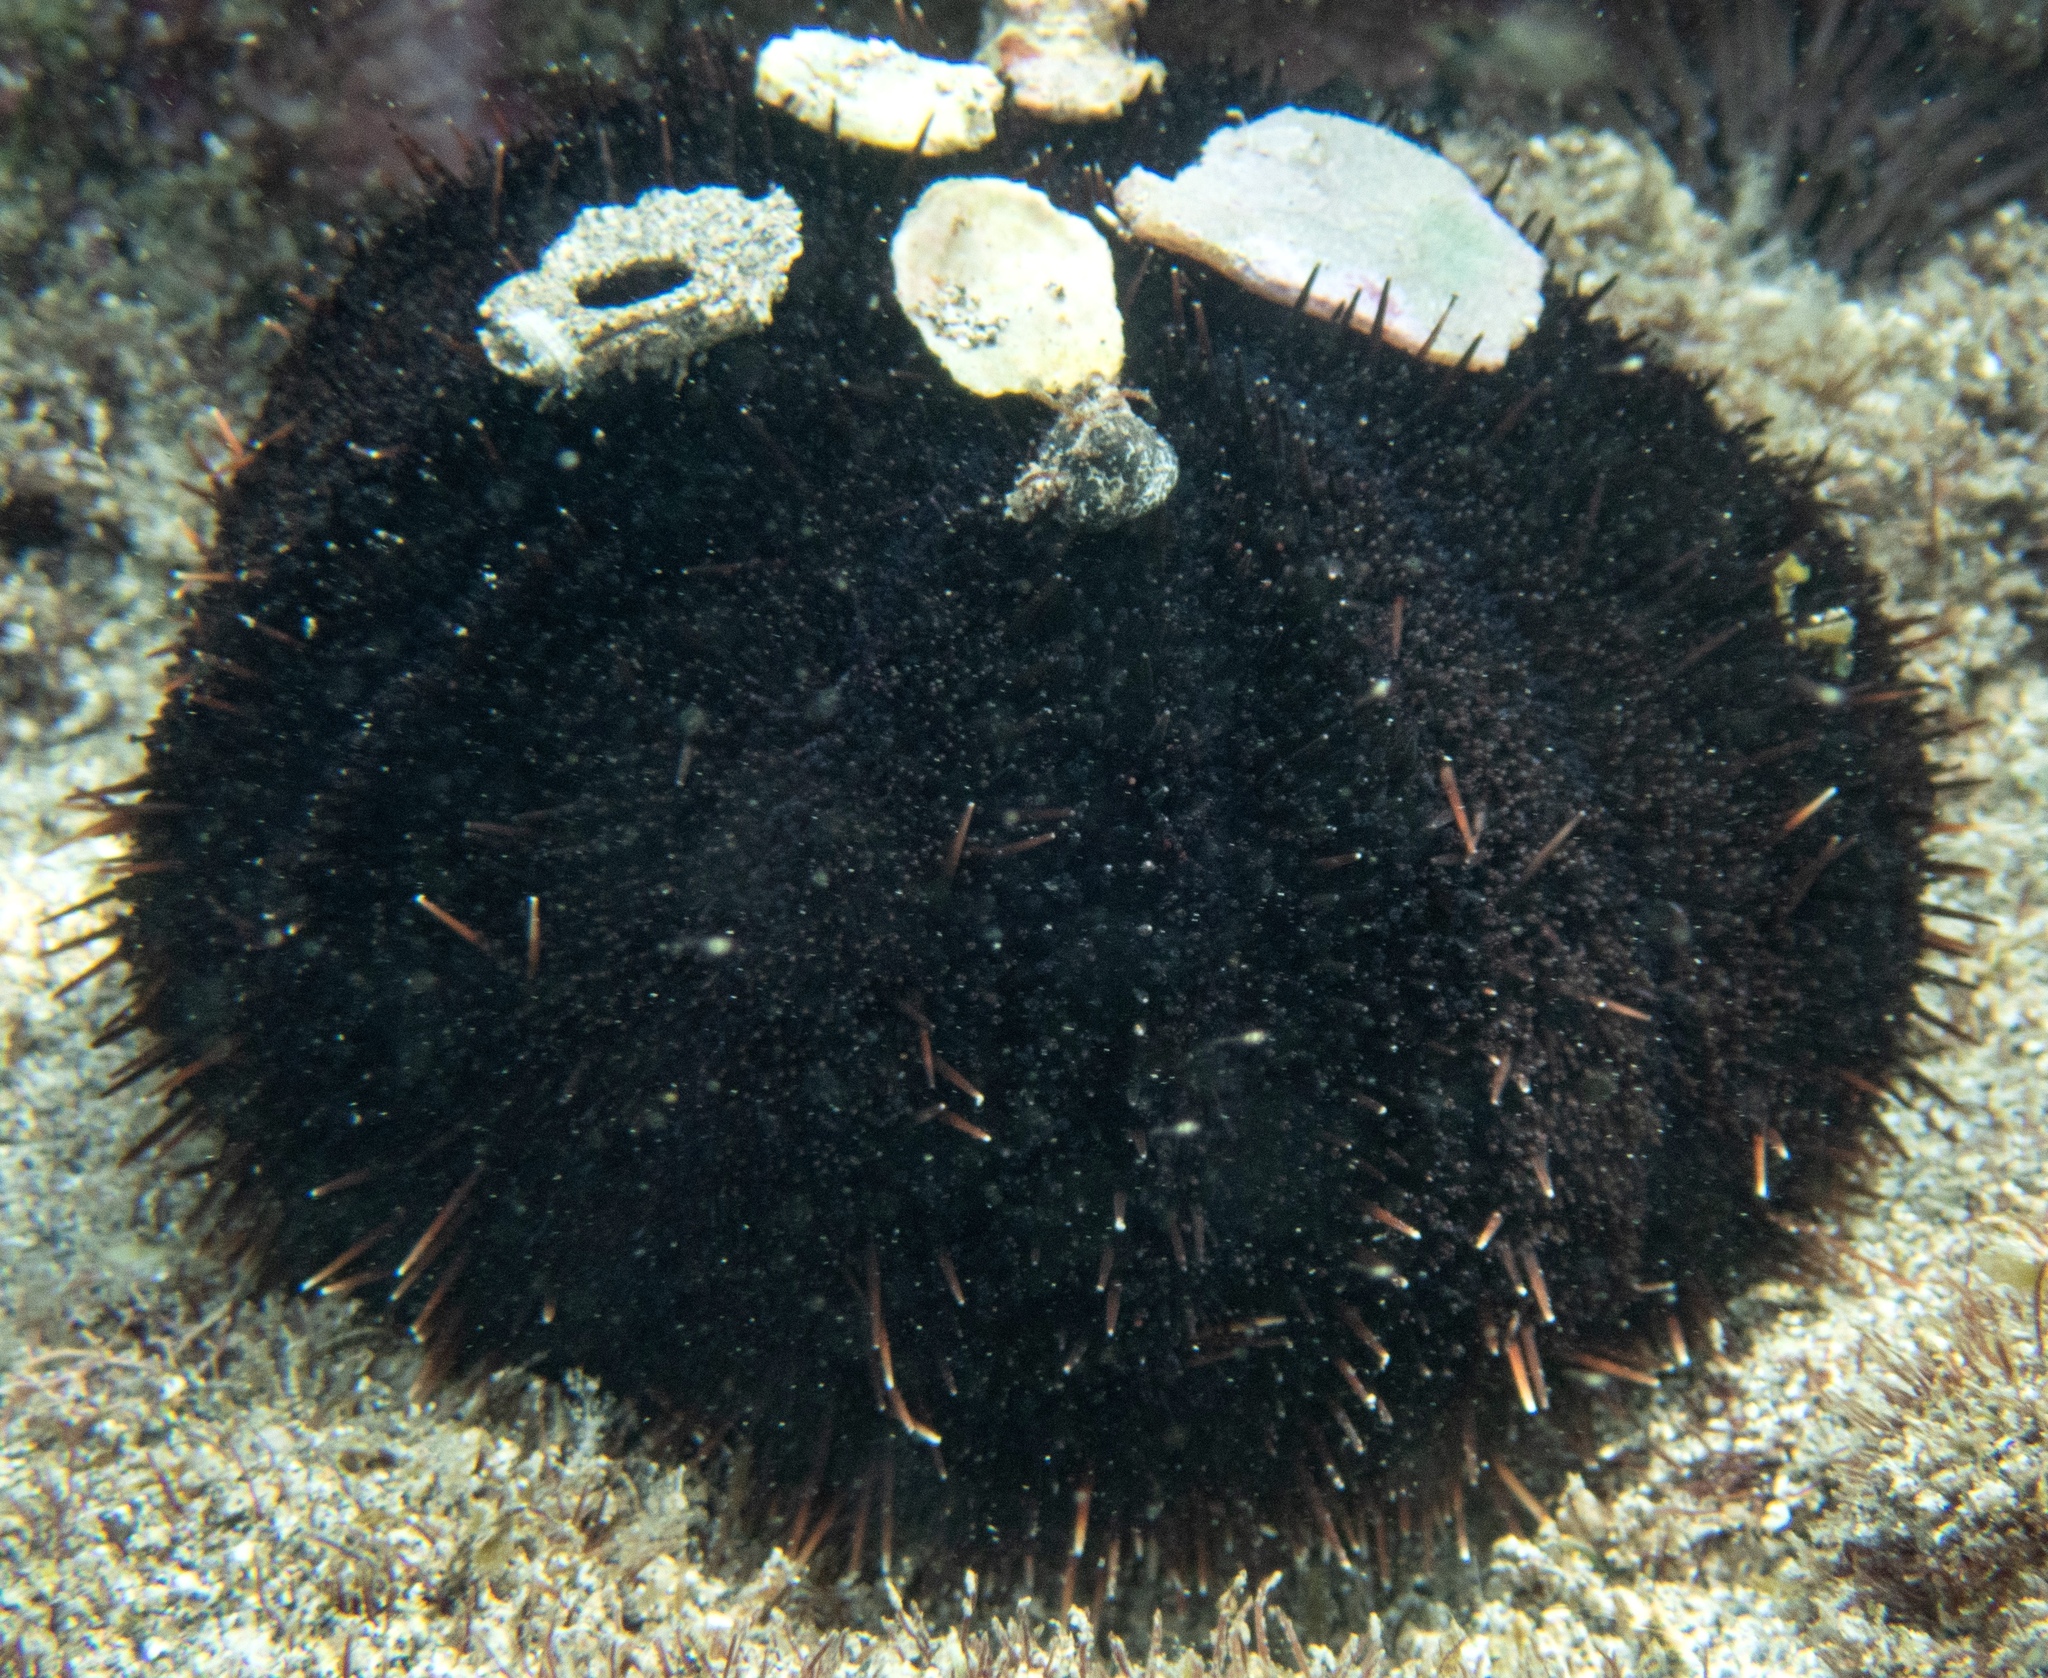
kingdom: Animalia
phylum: Echinodermata
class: Echinoidea
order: Camarodonta
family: Toxopneustidae
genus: Tripneustes
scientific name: Tripneustes gratilla
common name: Bischofsmützenseeigel
